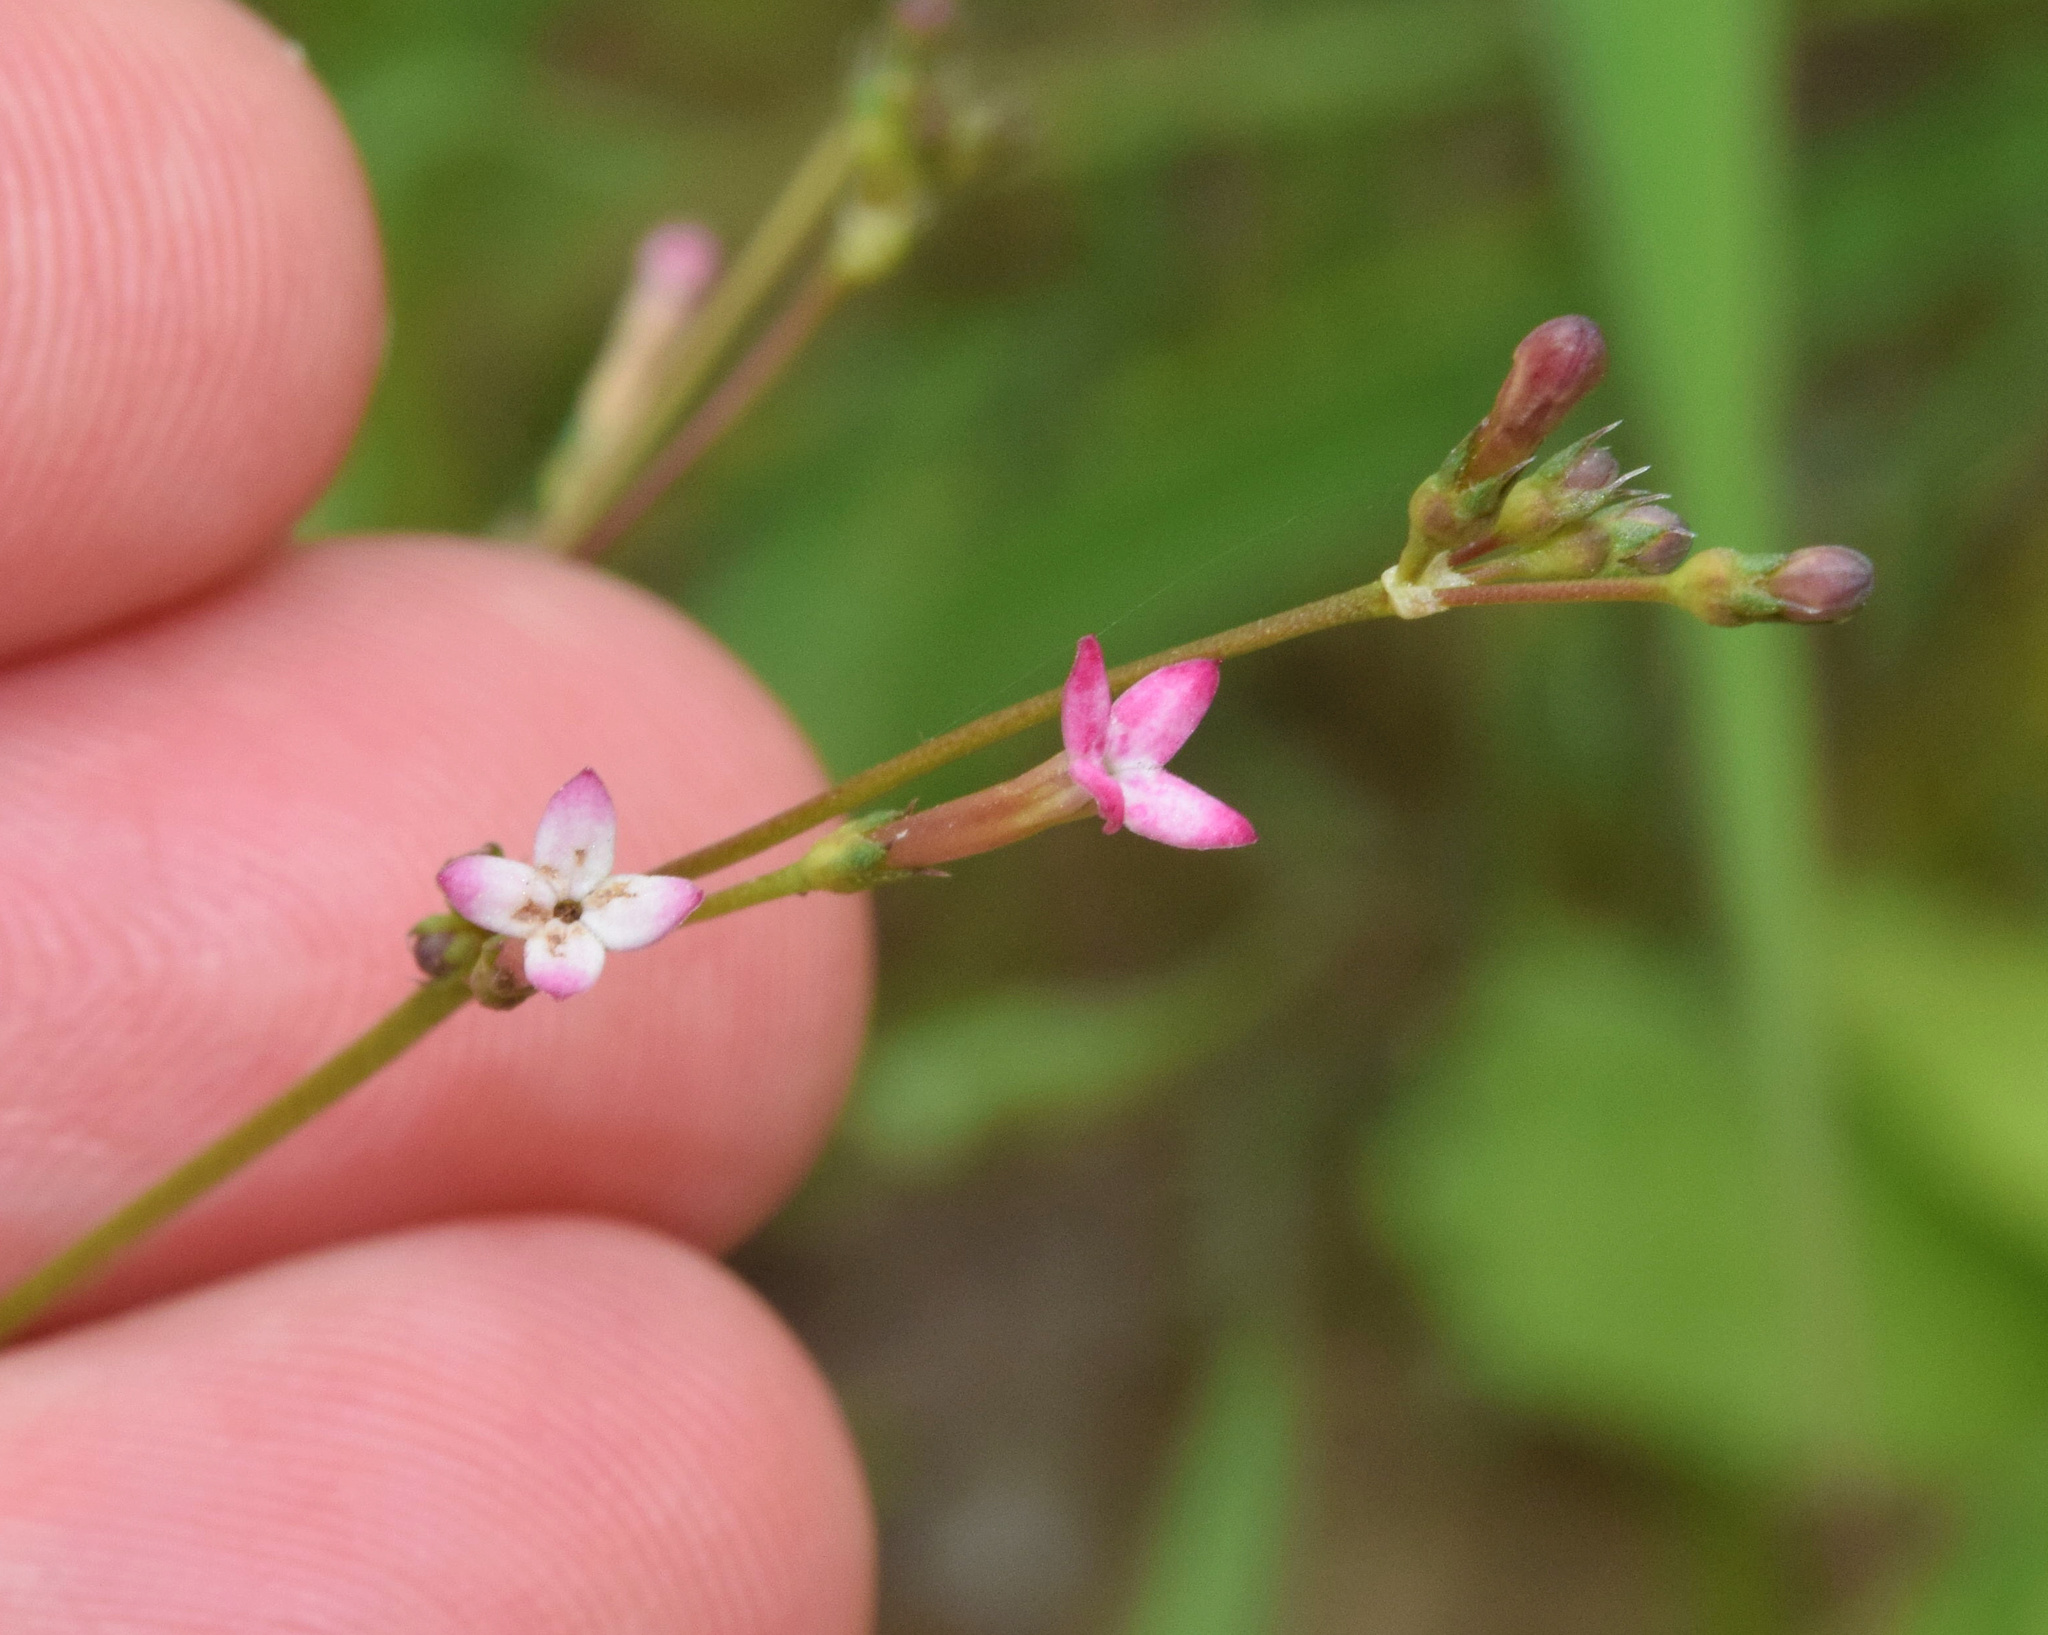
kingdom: Plantae
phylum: Tracheophyta
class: Magnoliopsida
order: Gentianales
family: Rubiaceae
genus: Cordylostigma
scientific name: Cordylostigma virgatum
